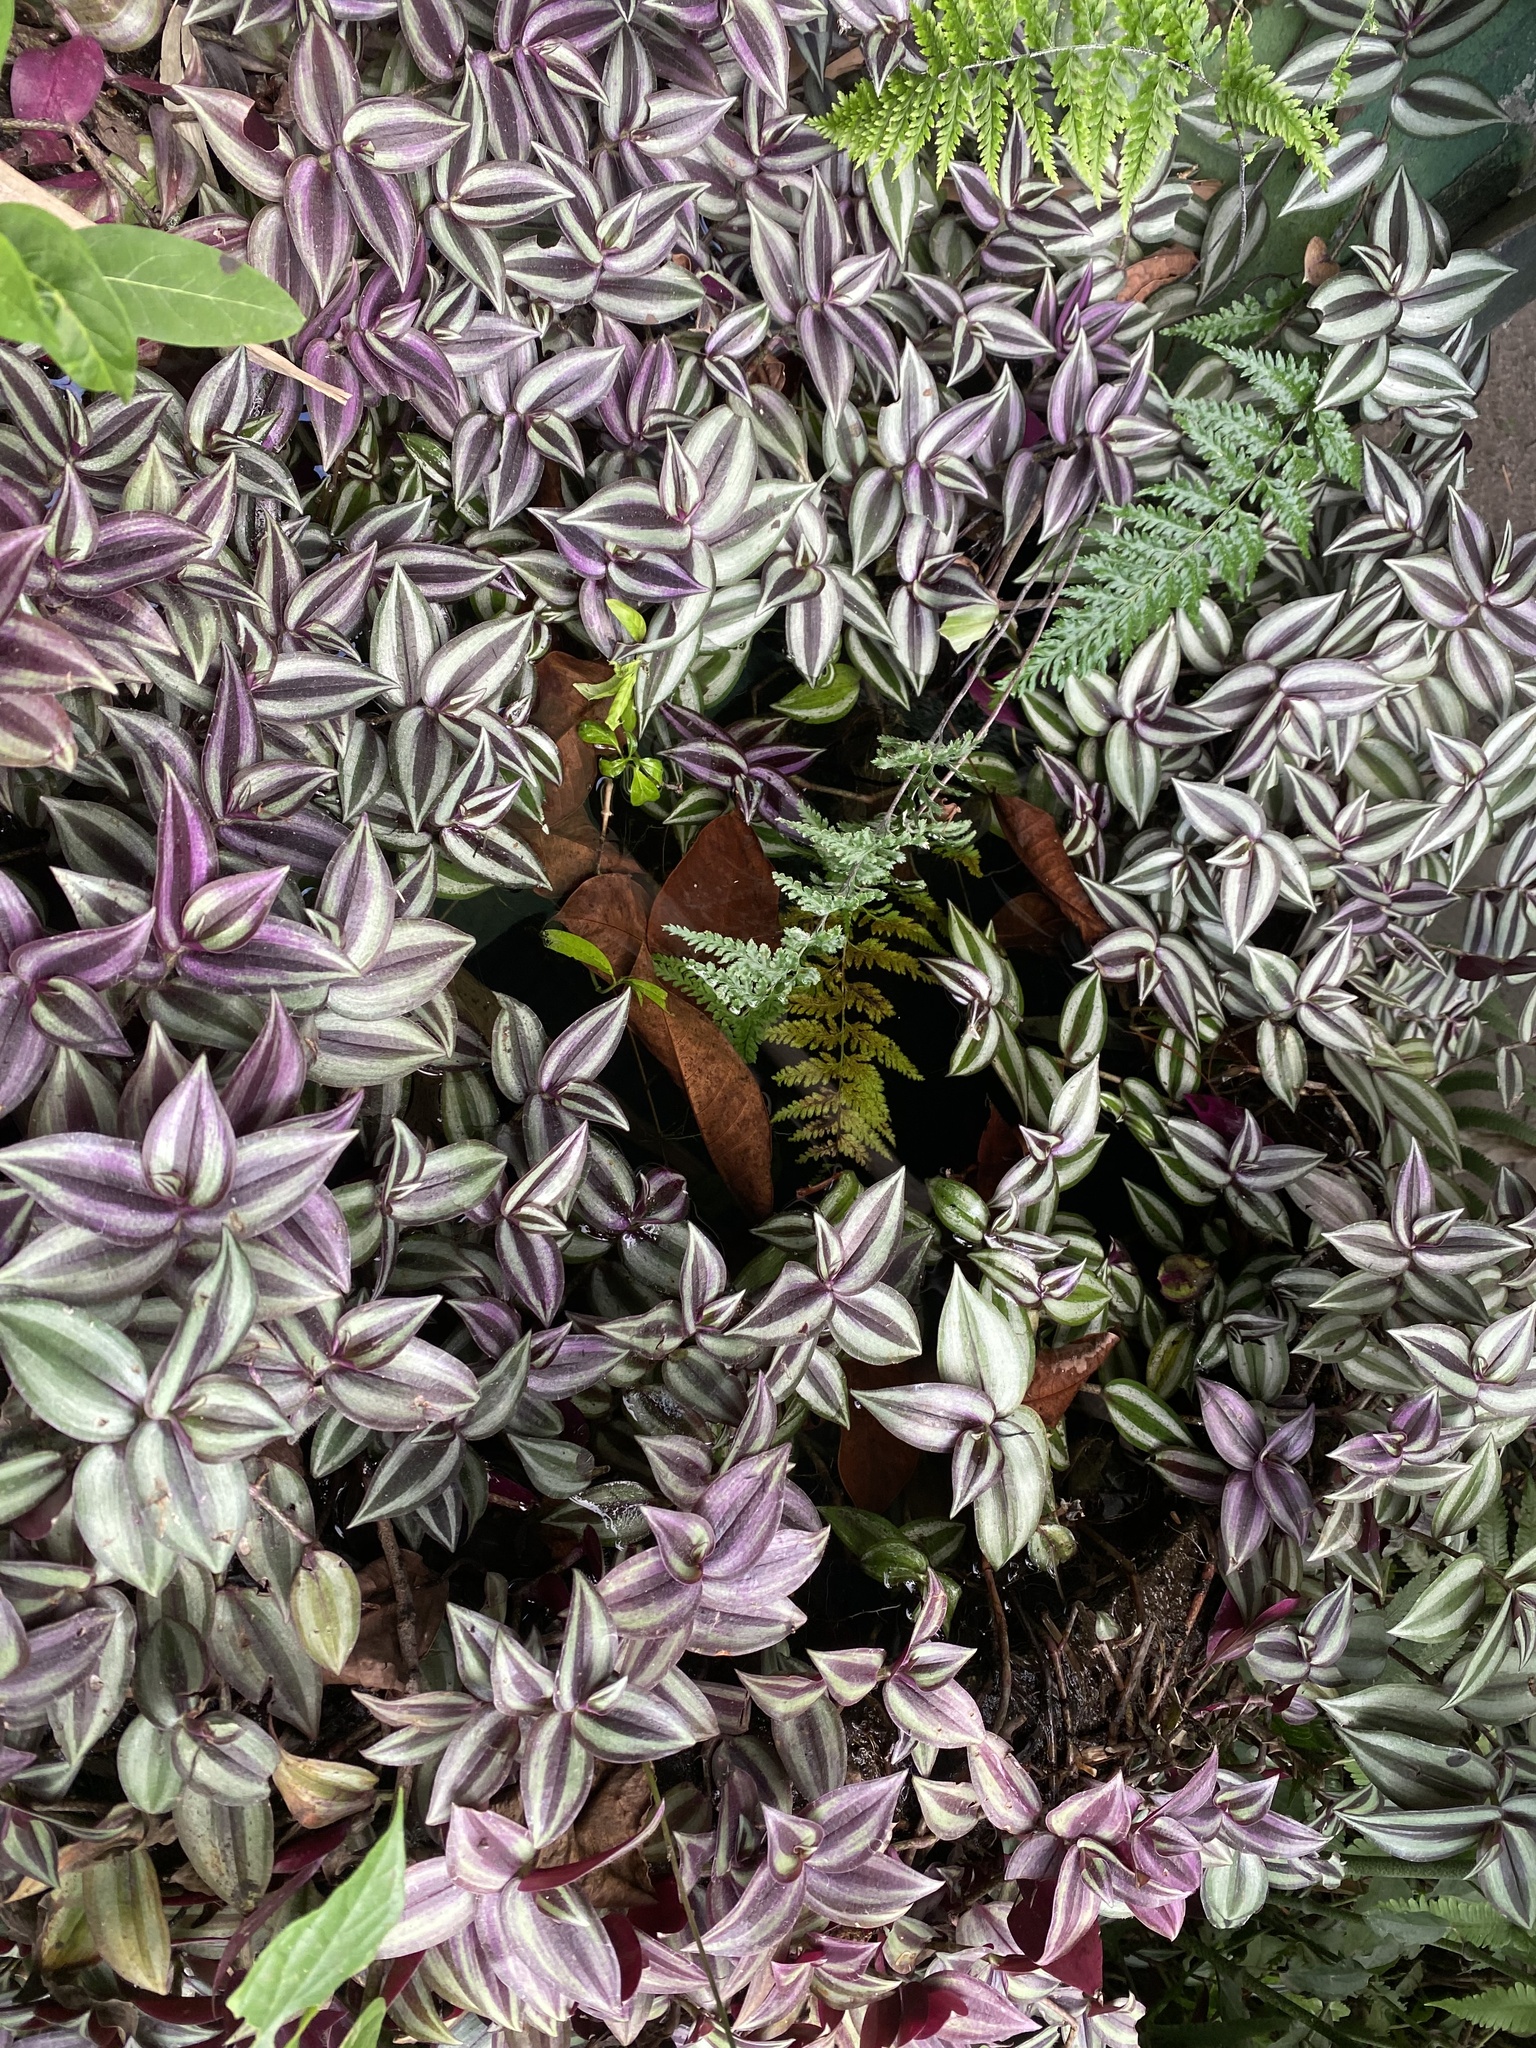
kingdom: Plantae
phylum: Tracheophyta
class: Liliopsida
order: Commelinales
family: Commelinaceae
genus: Tradescantia
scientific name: Tradescantia zebrina
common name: Inchplant
